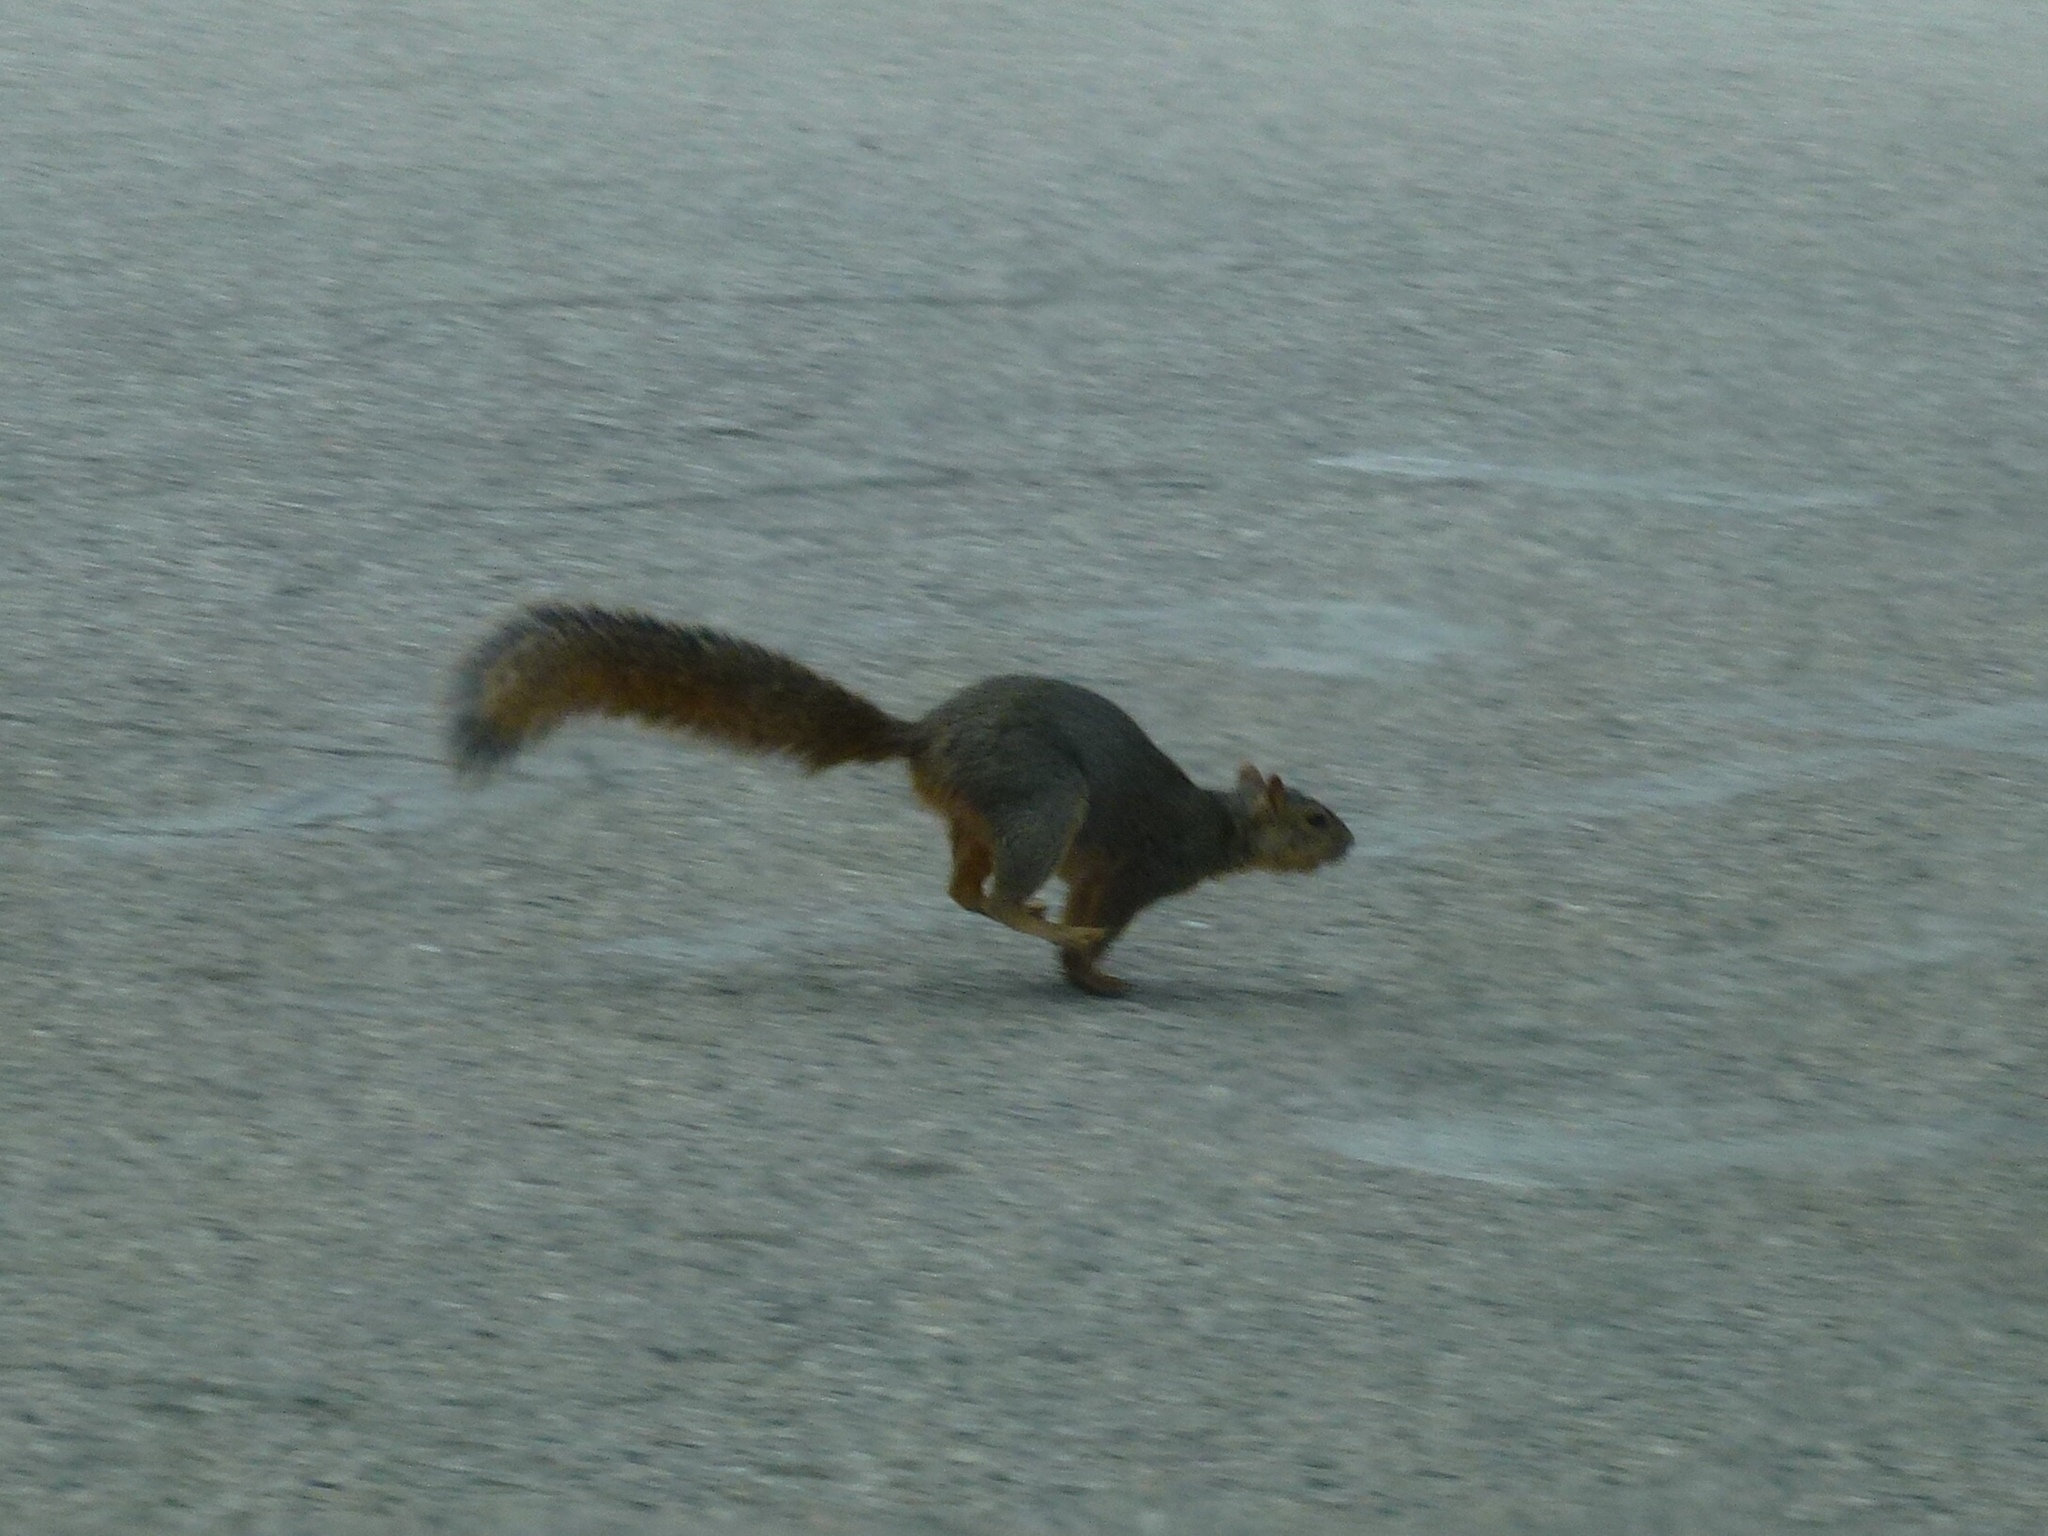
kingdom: Animalia
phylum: Chordata
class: Mammalia
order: Rodentia
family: Sciuridae
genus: Sciurus
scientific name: Sciurus niger
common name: Fox squirrel
